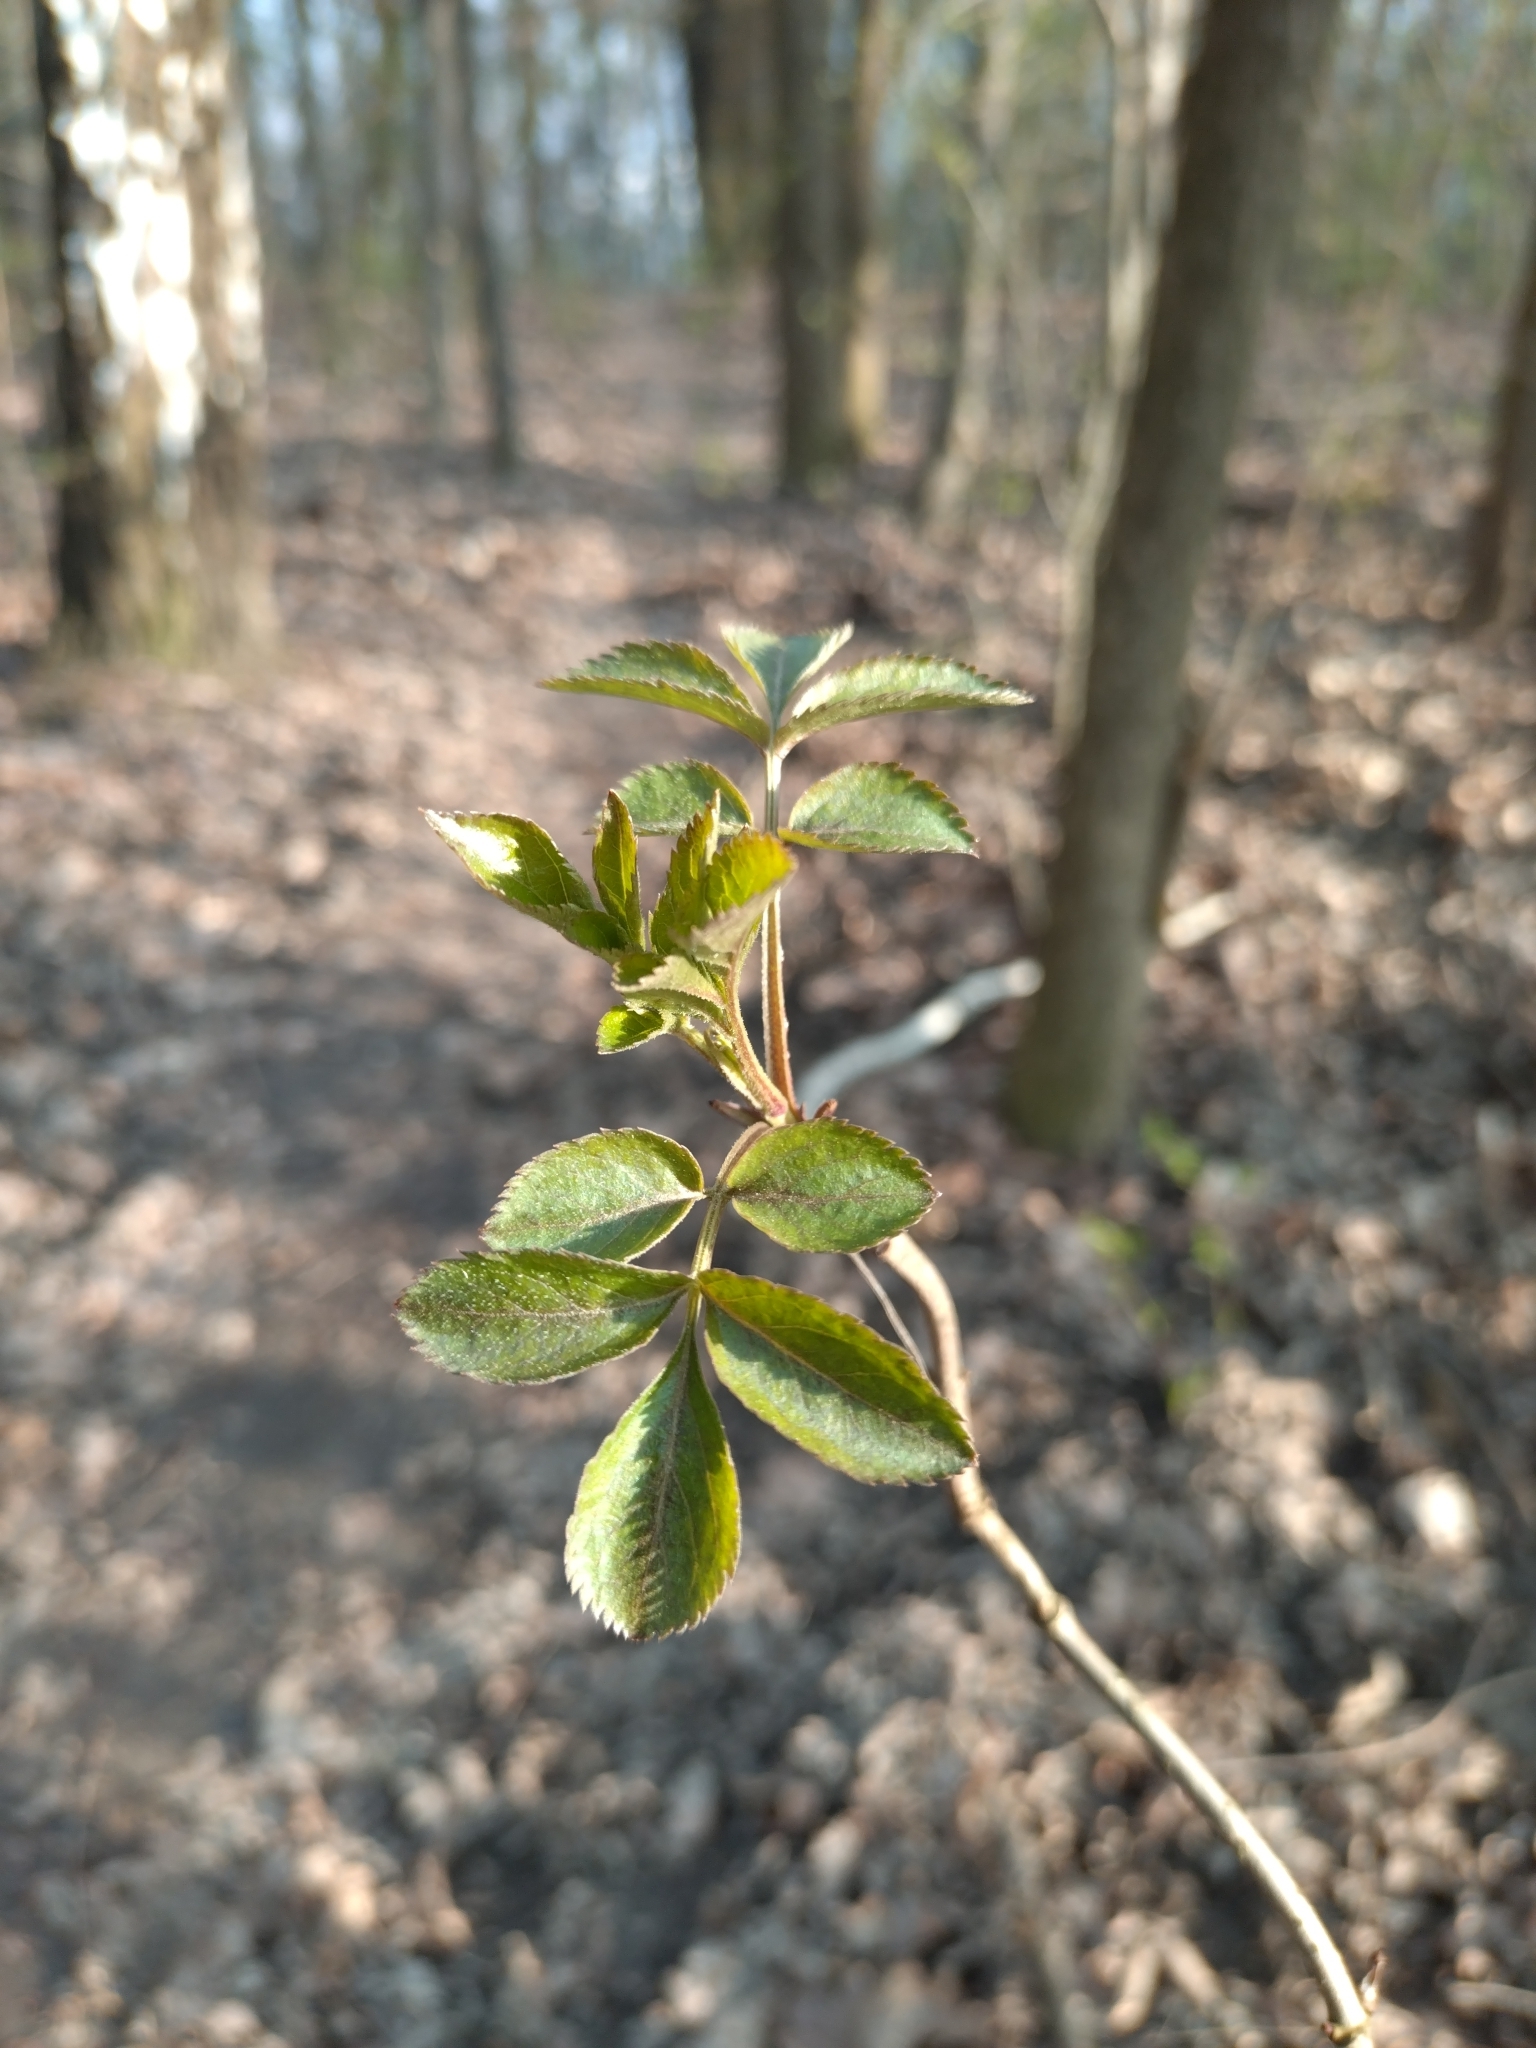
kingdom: Plantae
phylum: Tracheophyta
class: Magnoliopsida
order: Dipsacales
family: Viburnaceae
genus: Sambucus
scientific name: Sambucus nigra
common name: Elder
